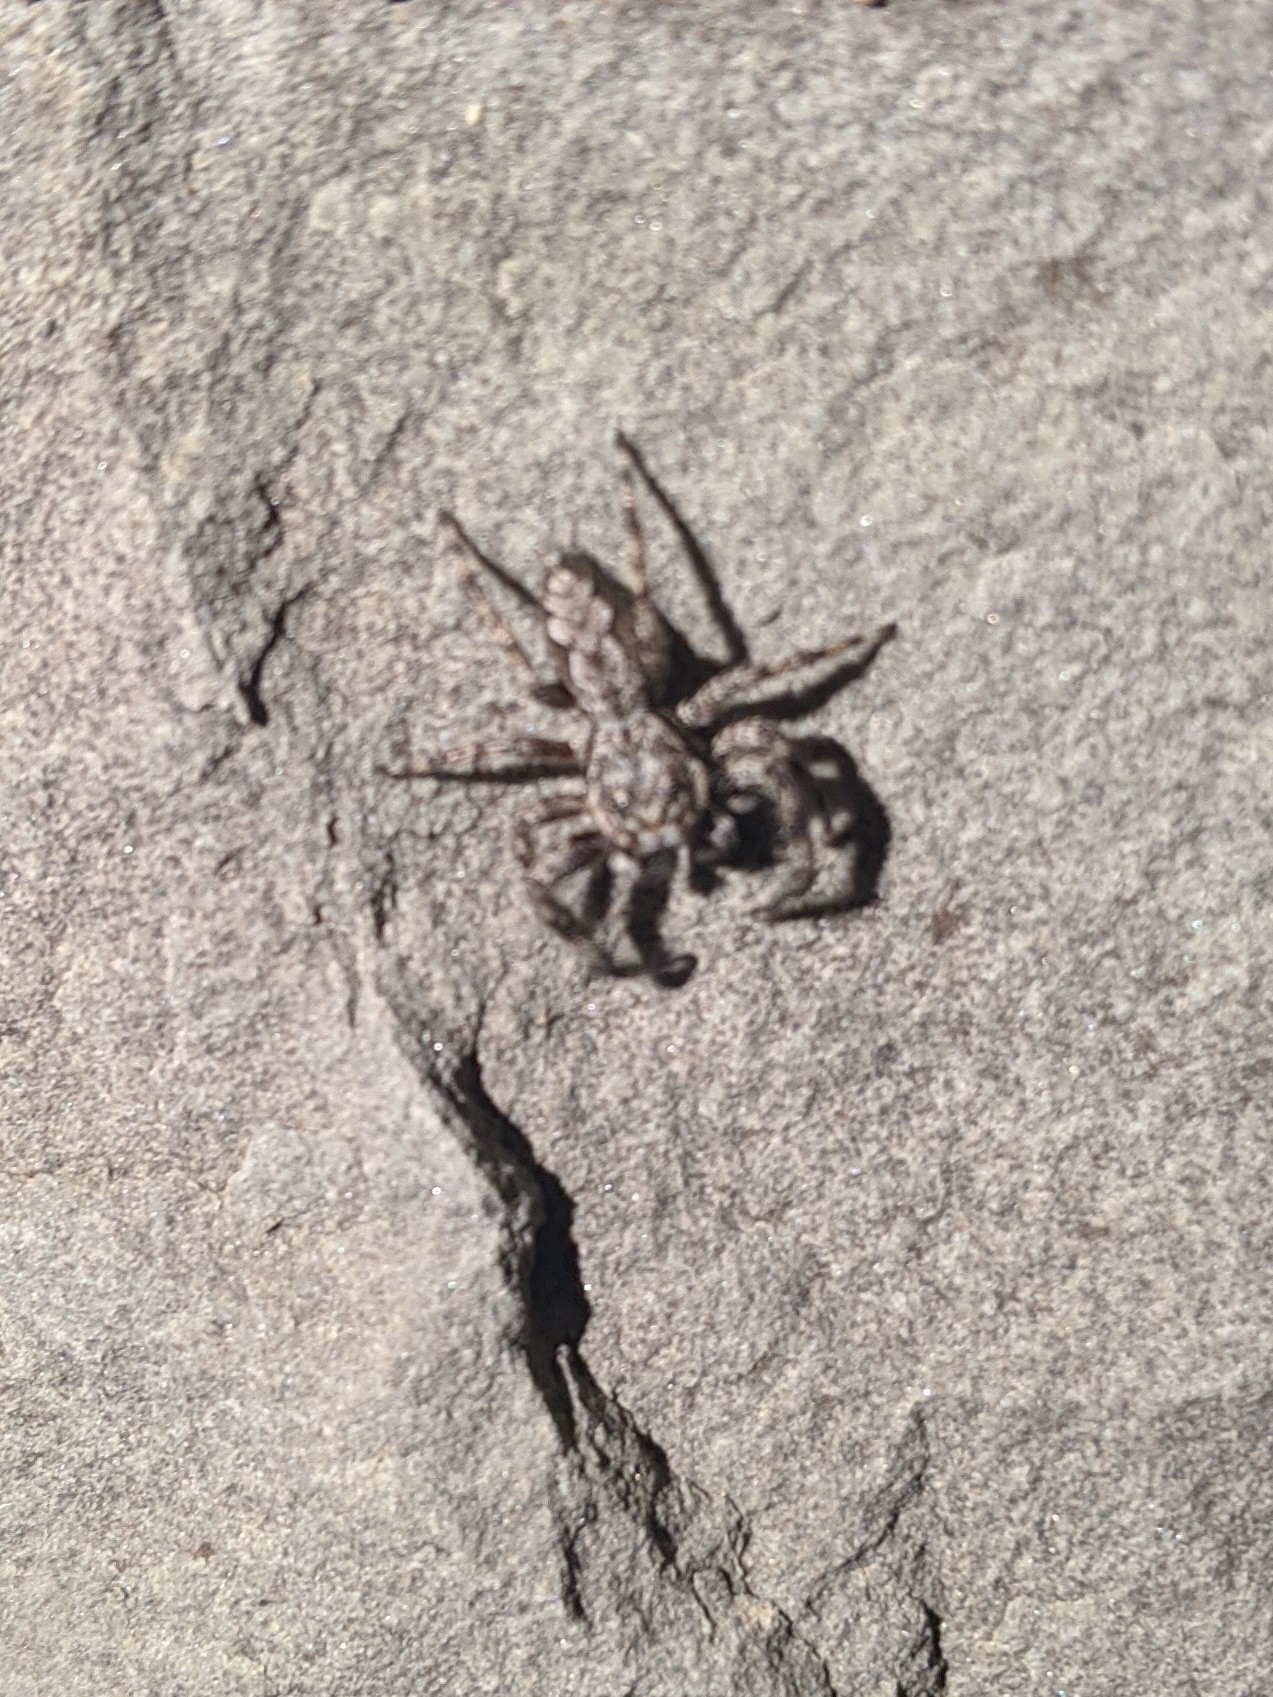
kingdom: Animalia
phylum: Arthropoda
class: Arachnida
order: Araneae
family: Salticidae
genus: Platycryptus
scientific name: Platycryptus undatus
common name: Tan jumping spider
